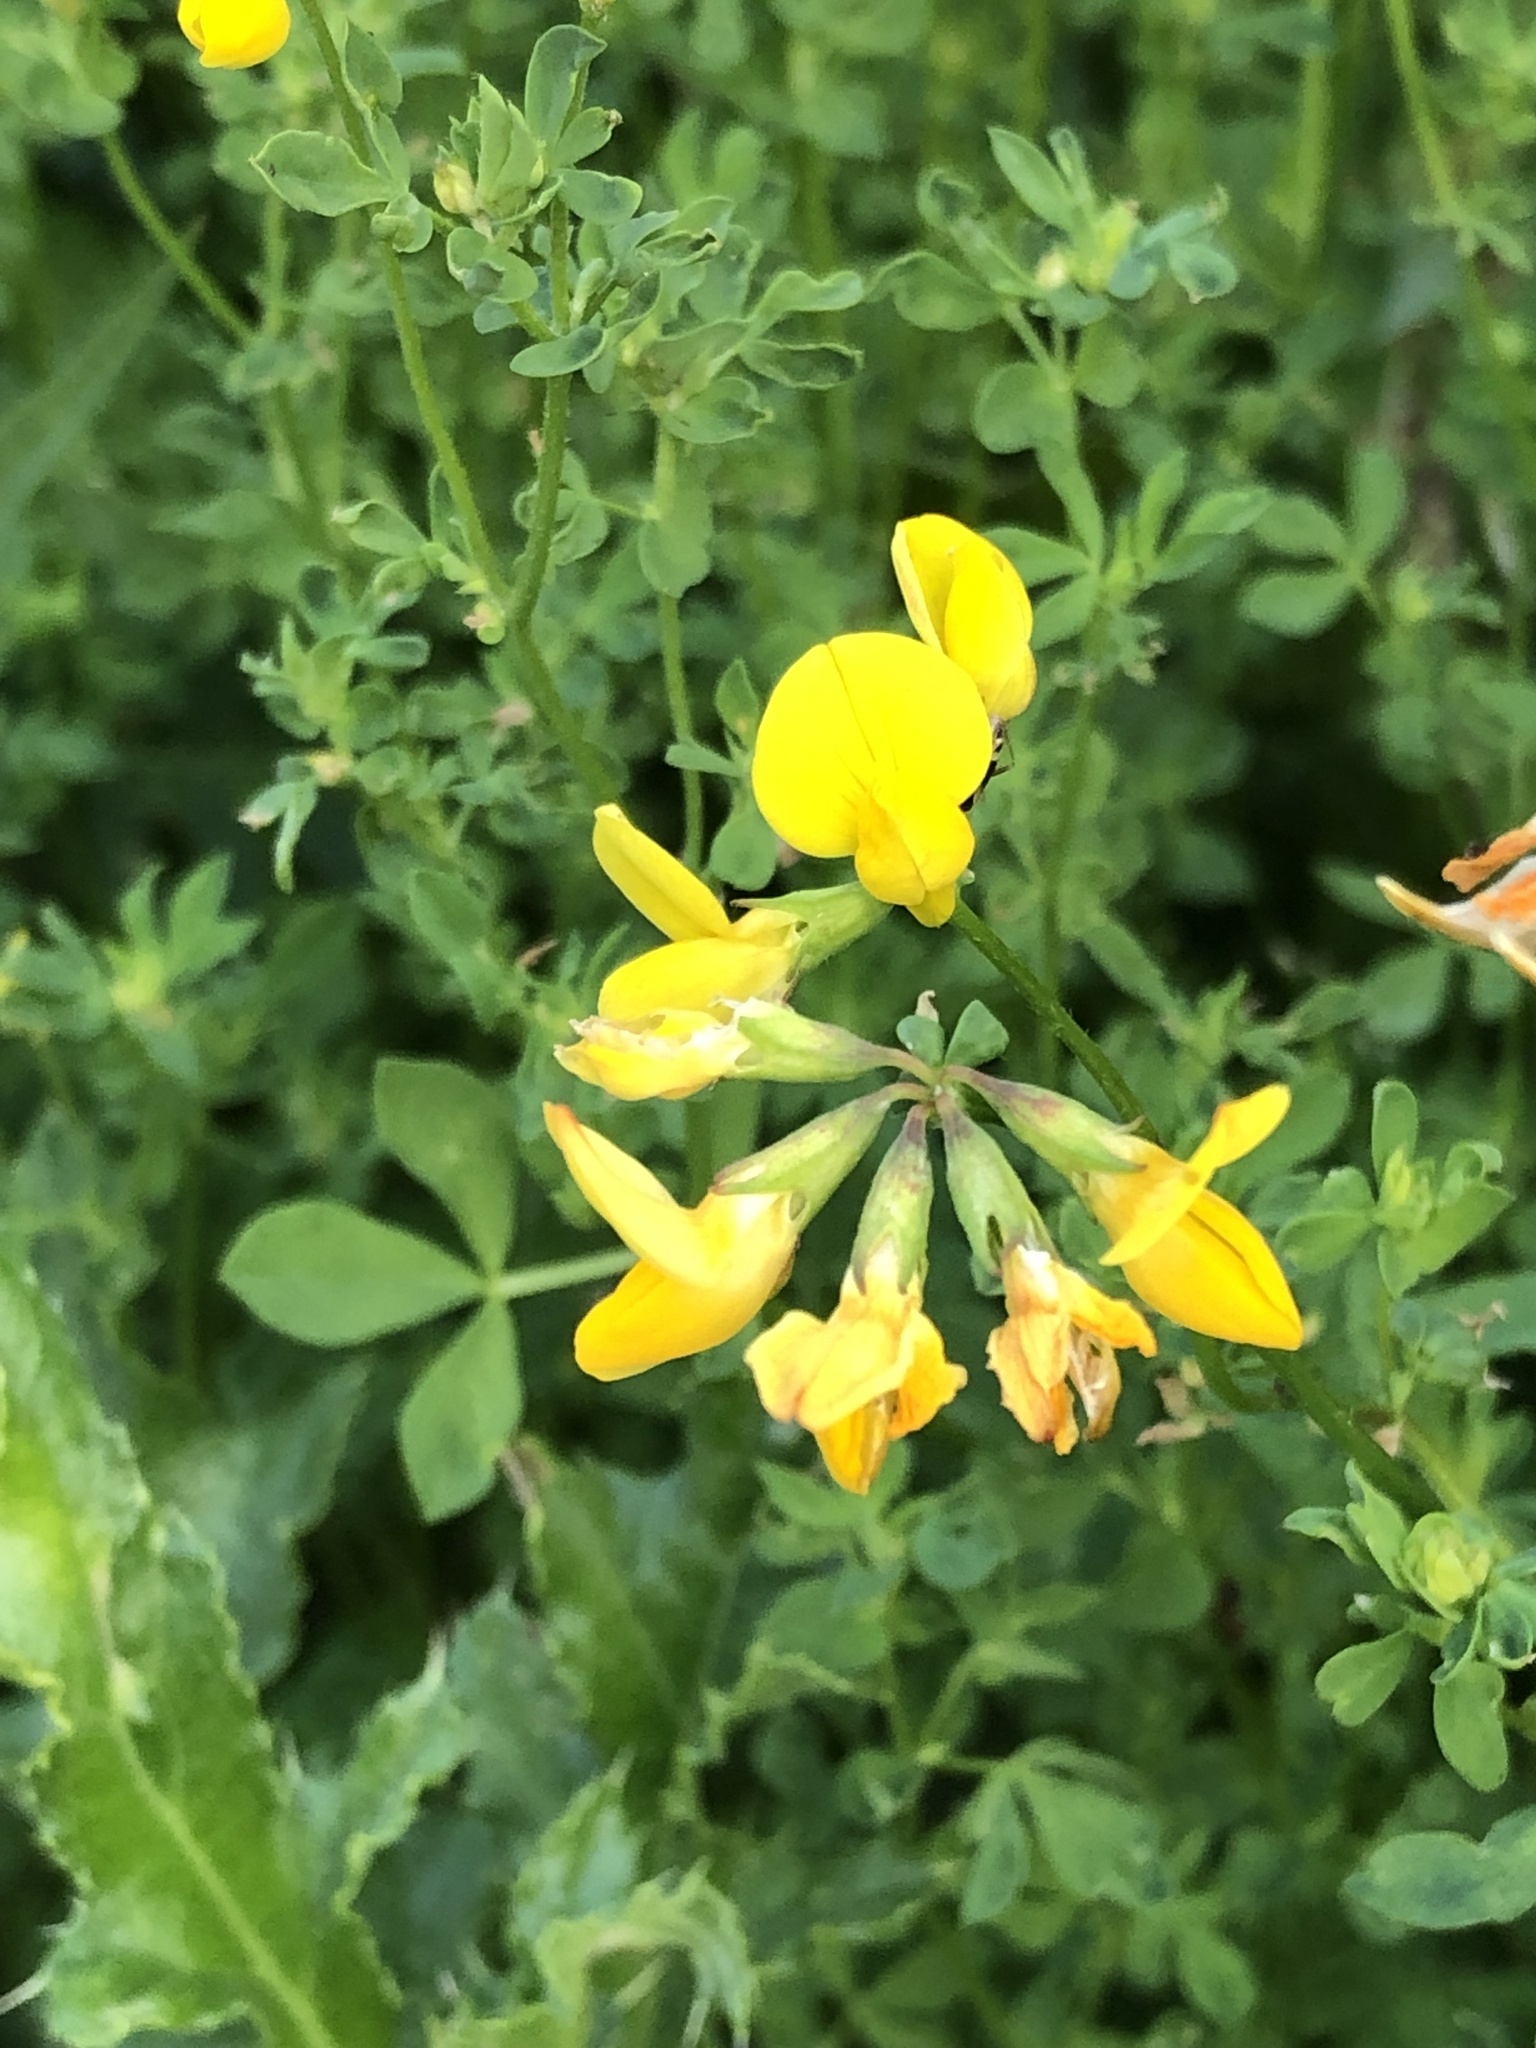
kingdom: Plantae
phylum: Tracheophyta
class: Magnoliopsida
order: Fabales
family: Fabaceae
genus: Lotus
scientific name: Lotus corniculatus
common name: Common bird's-foot-trefoil
